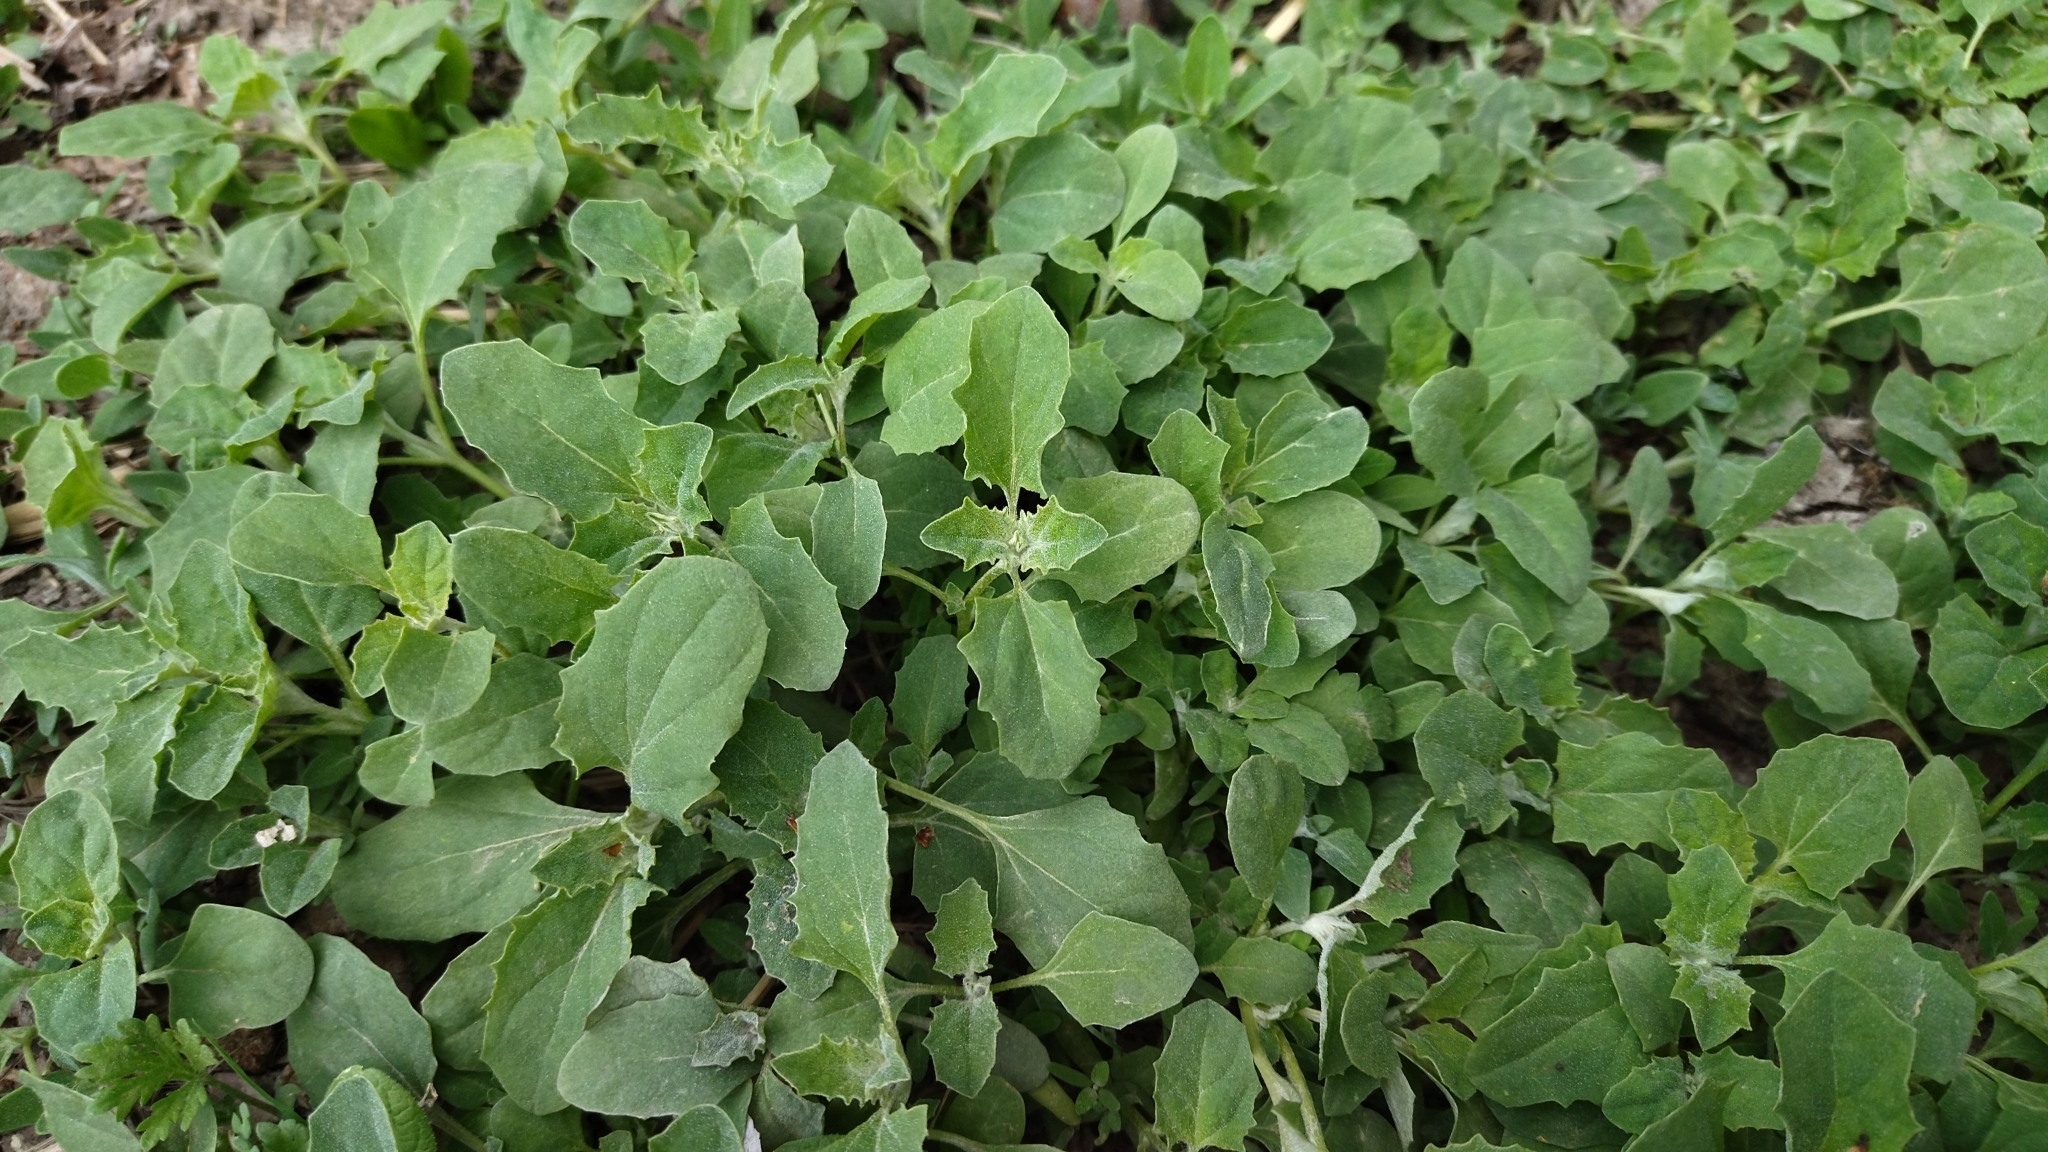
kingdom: Plantae
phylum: Tracheophyta
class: Magnoliopsida
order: Caryophyllales
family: Amaranthaceae
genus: Atriplex
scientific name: Atriplex tatarica
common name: Tatarian orache
